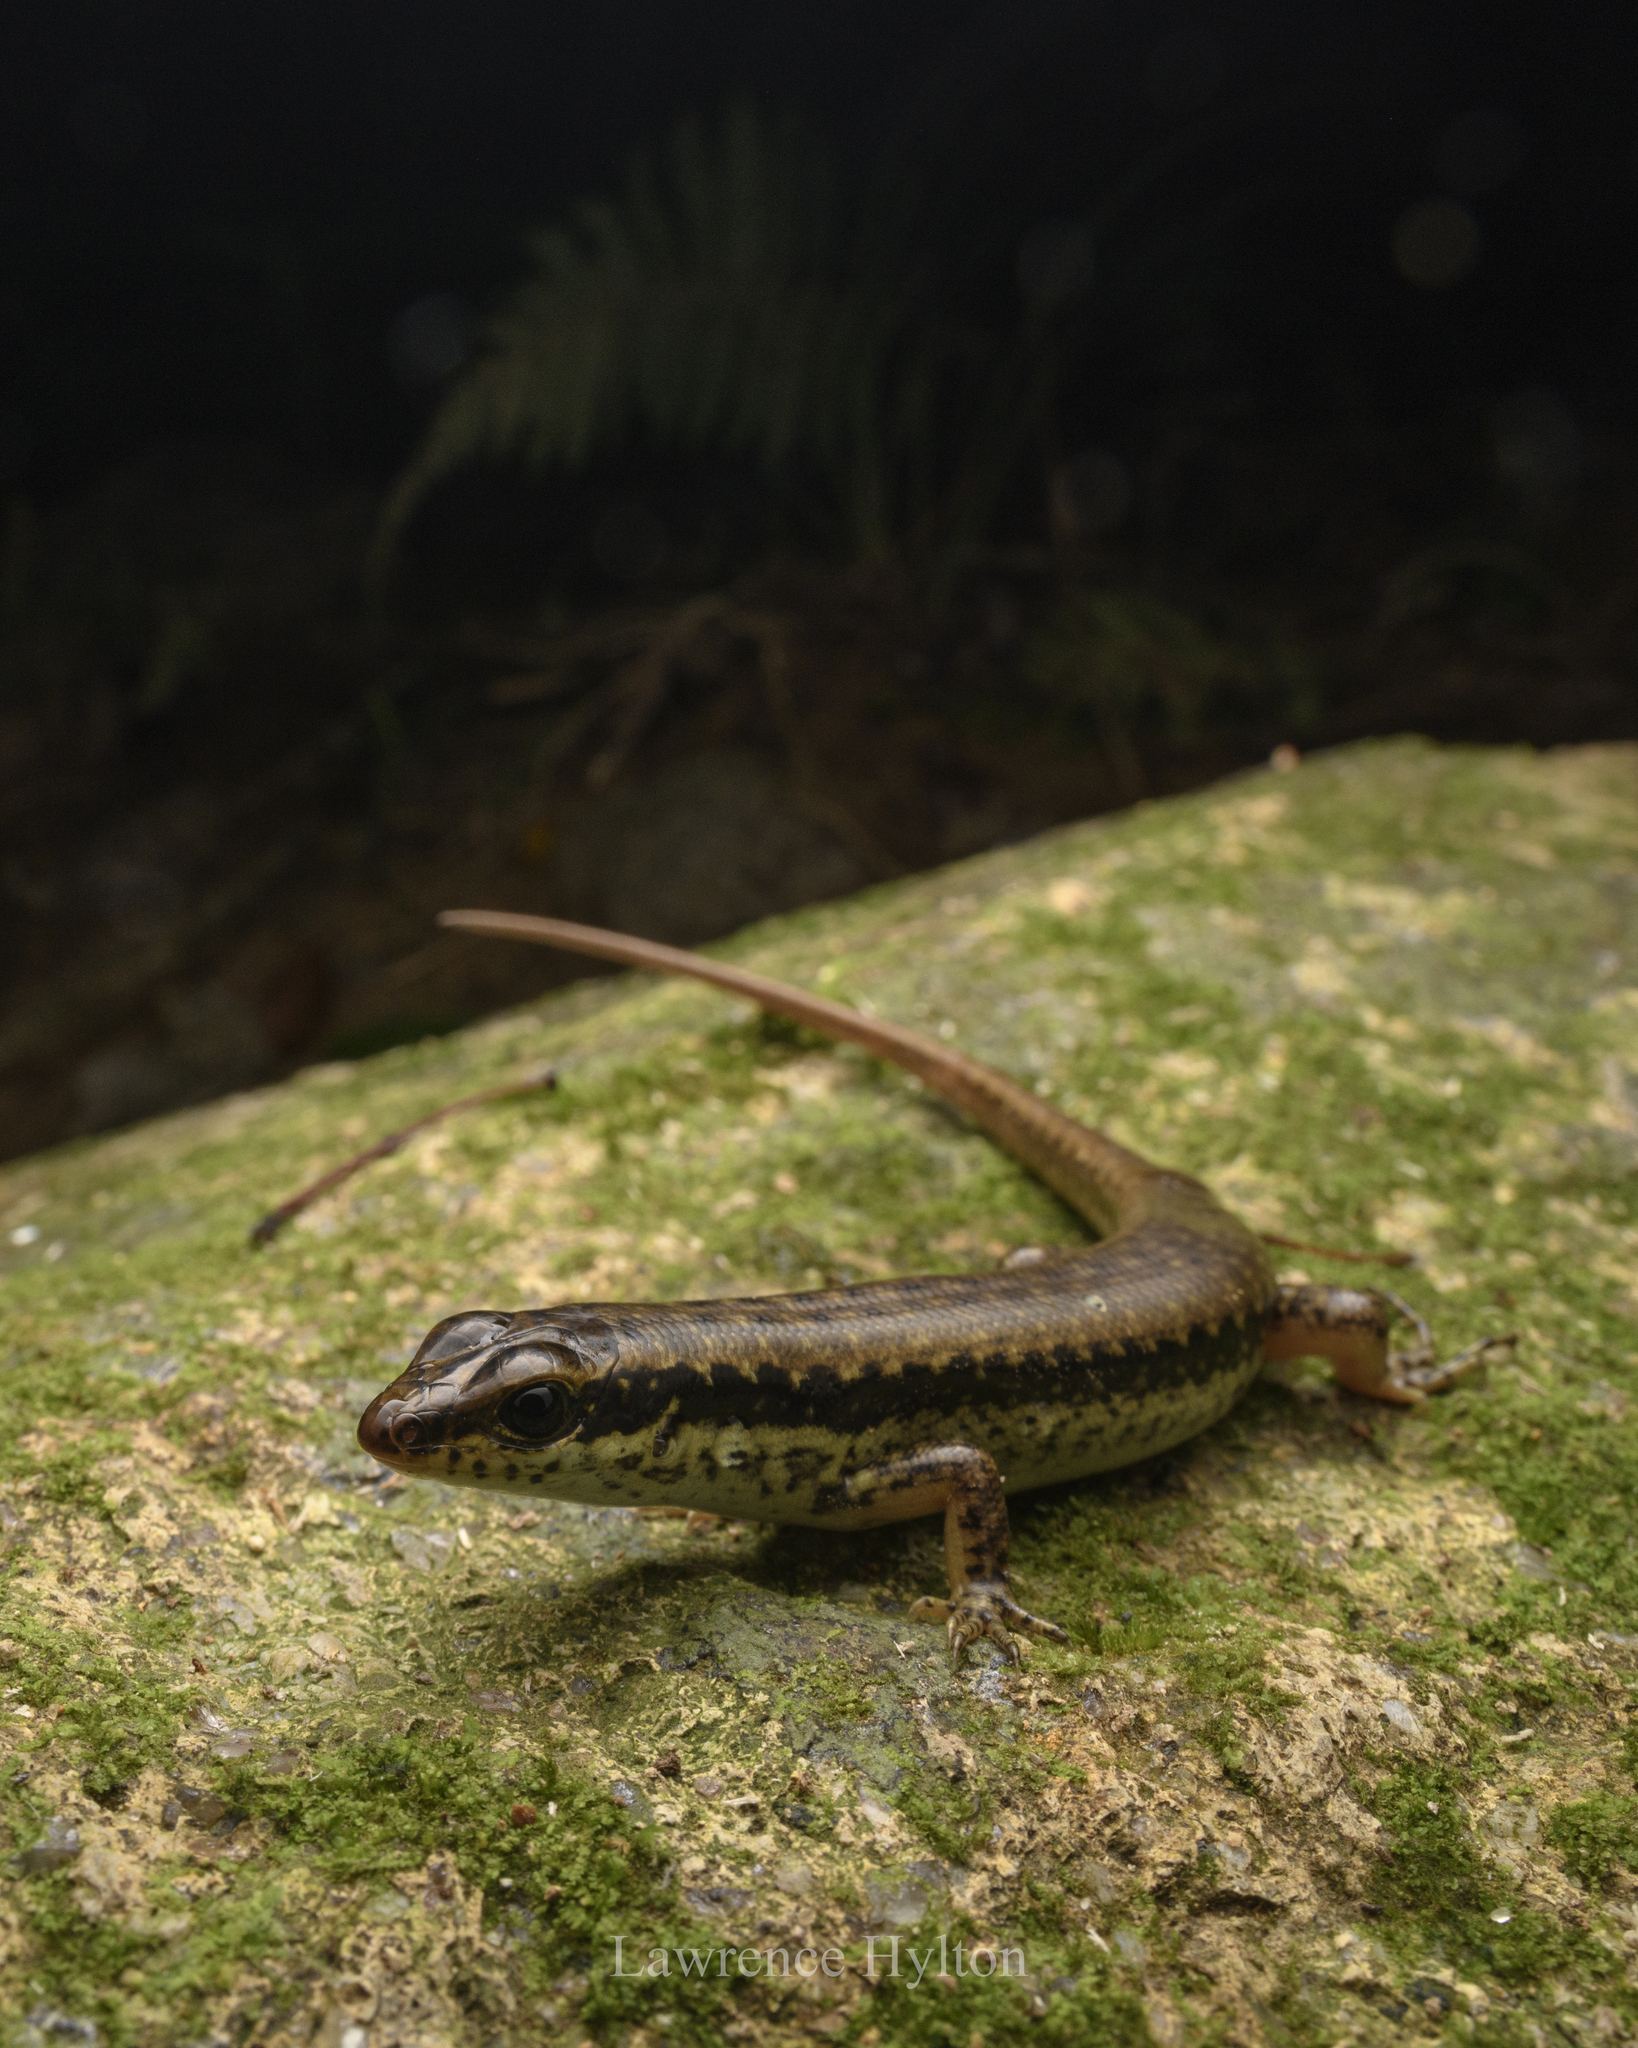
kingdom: Animalia
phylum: Chordata
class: Squamata
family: Scincidae
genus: Sphenomorphus
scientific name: Sphenomorphus incognitus
